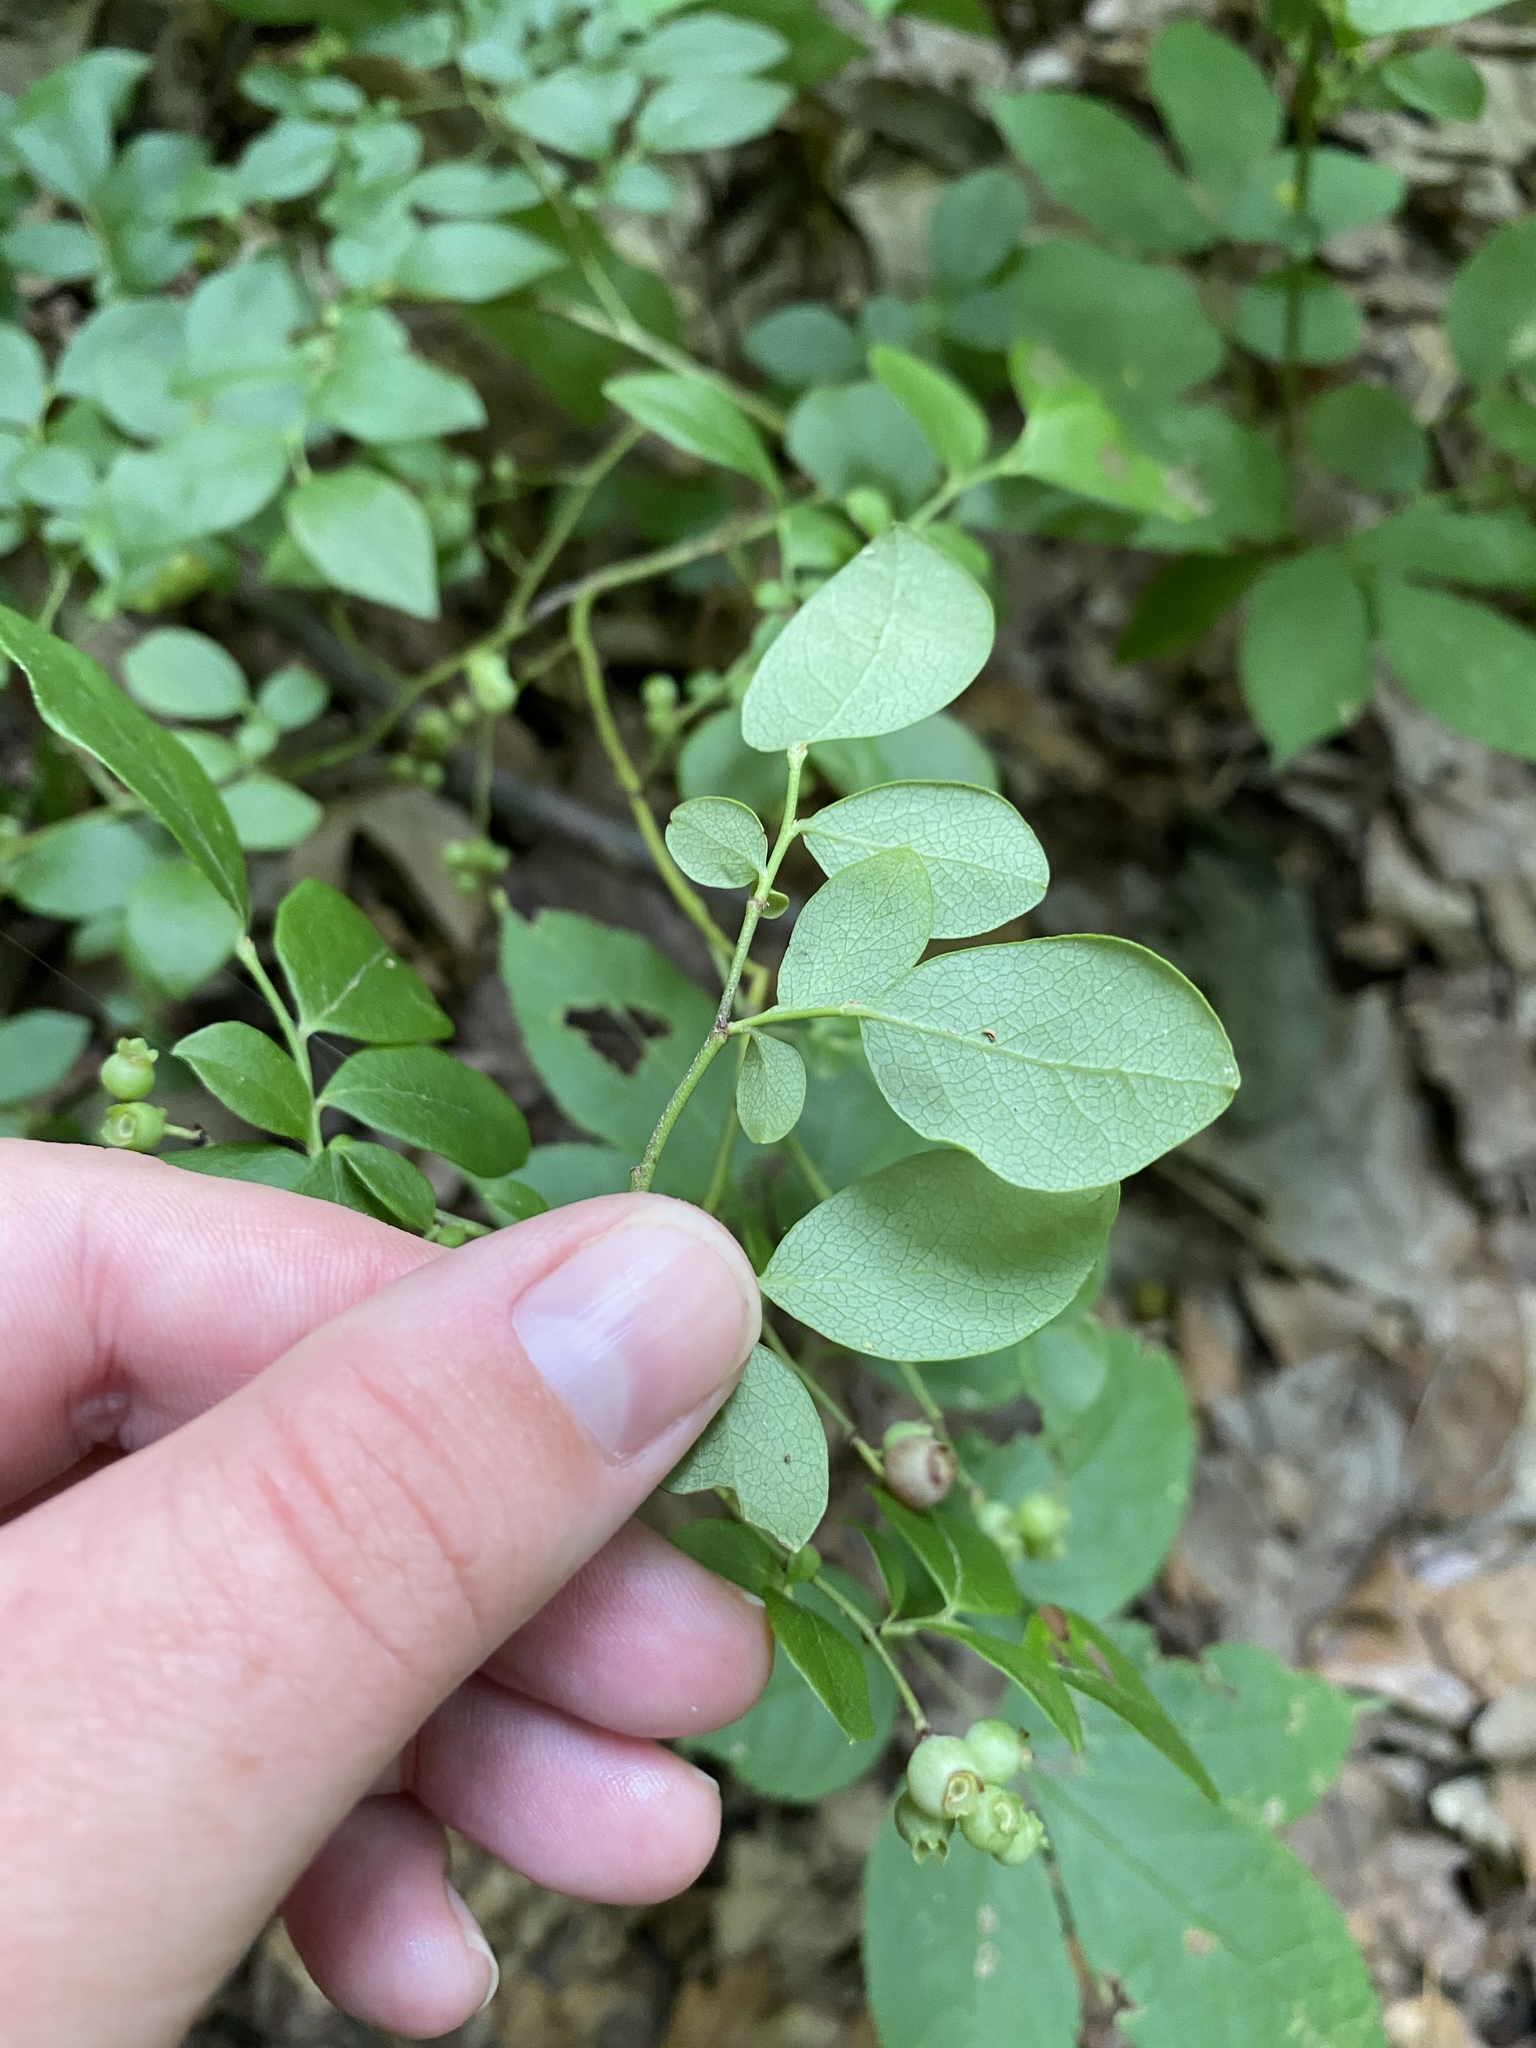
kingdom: Plantae
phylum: Tracheophyta
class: Magnoliopsida
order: Ericales
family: Ericaceae
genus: Vaccinium
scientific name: Vaccinium pallidum
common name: Blue ridge blueberry
